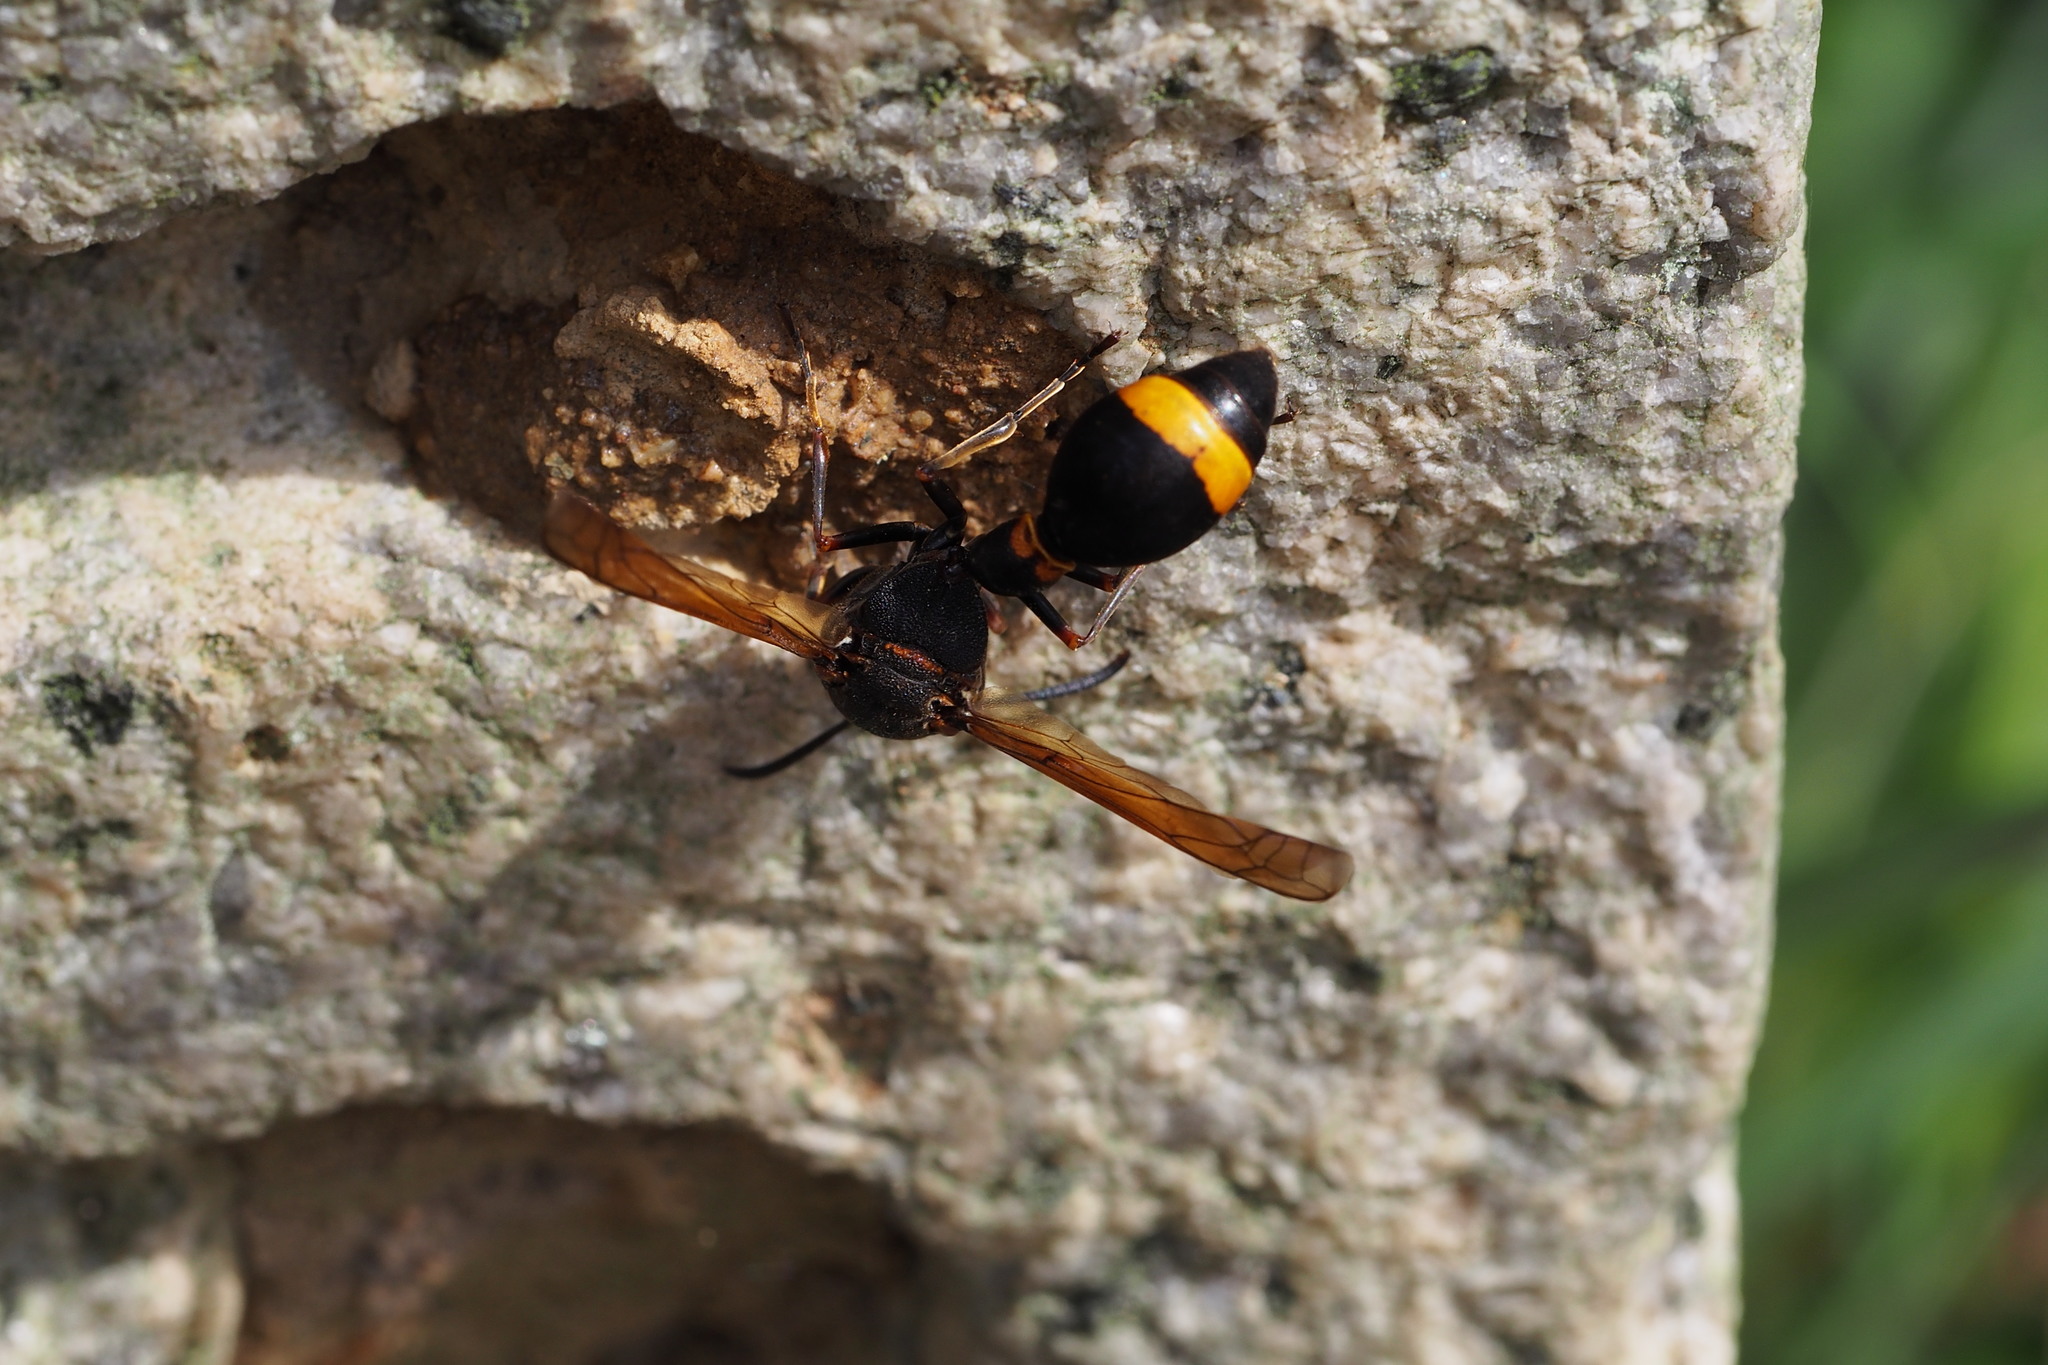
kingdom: Animalia
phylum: Arthropoda
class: Insecta
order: Hymenoptera
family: Eumenidae
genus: Oreumenes
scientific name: Oreumenes decoratus
